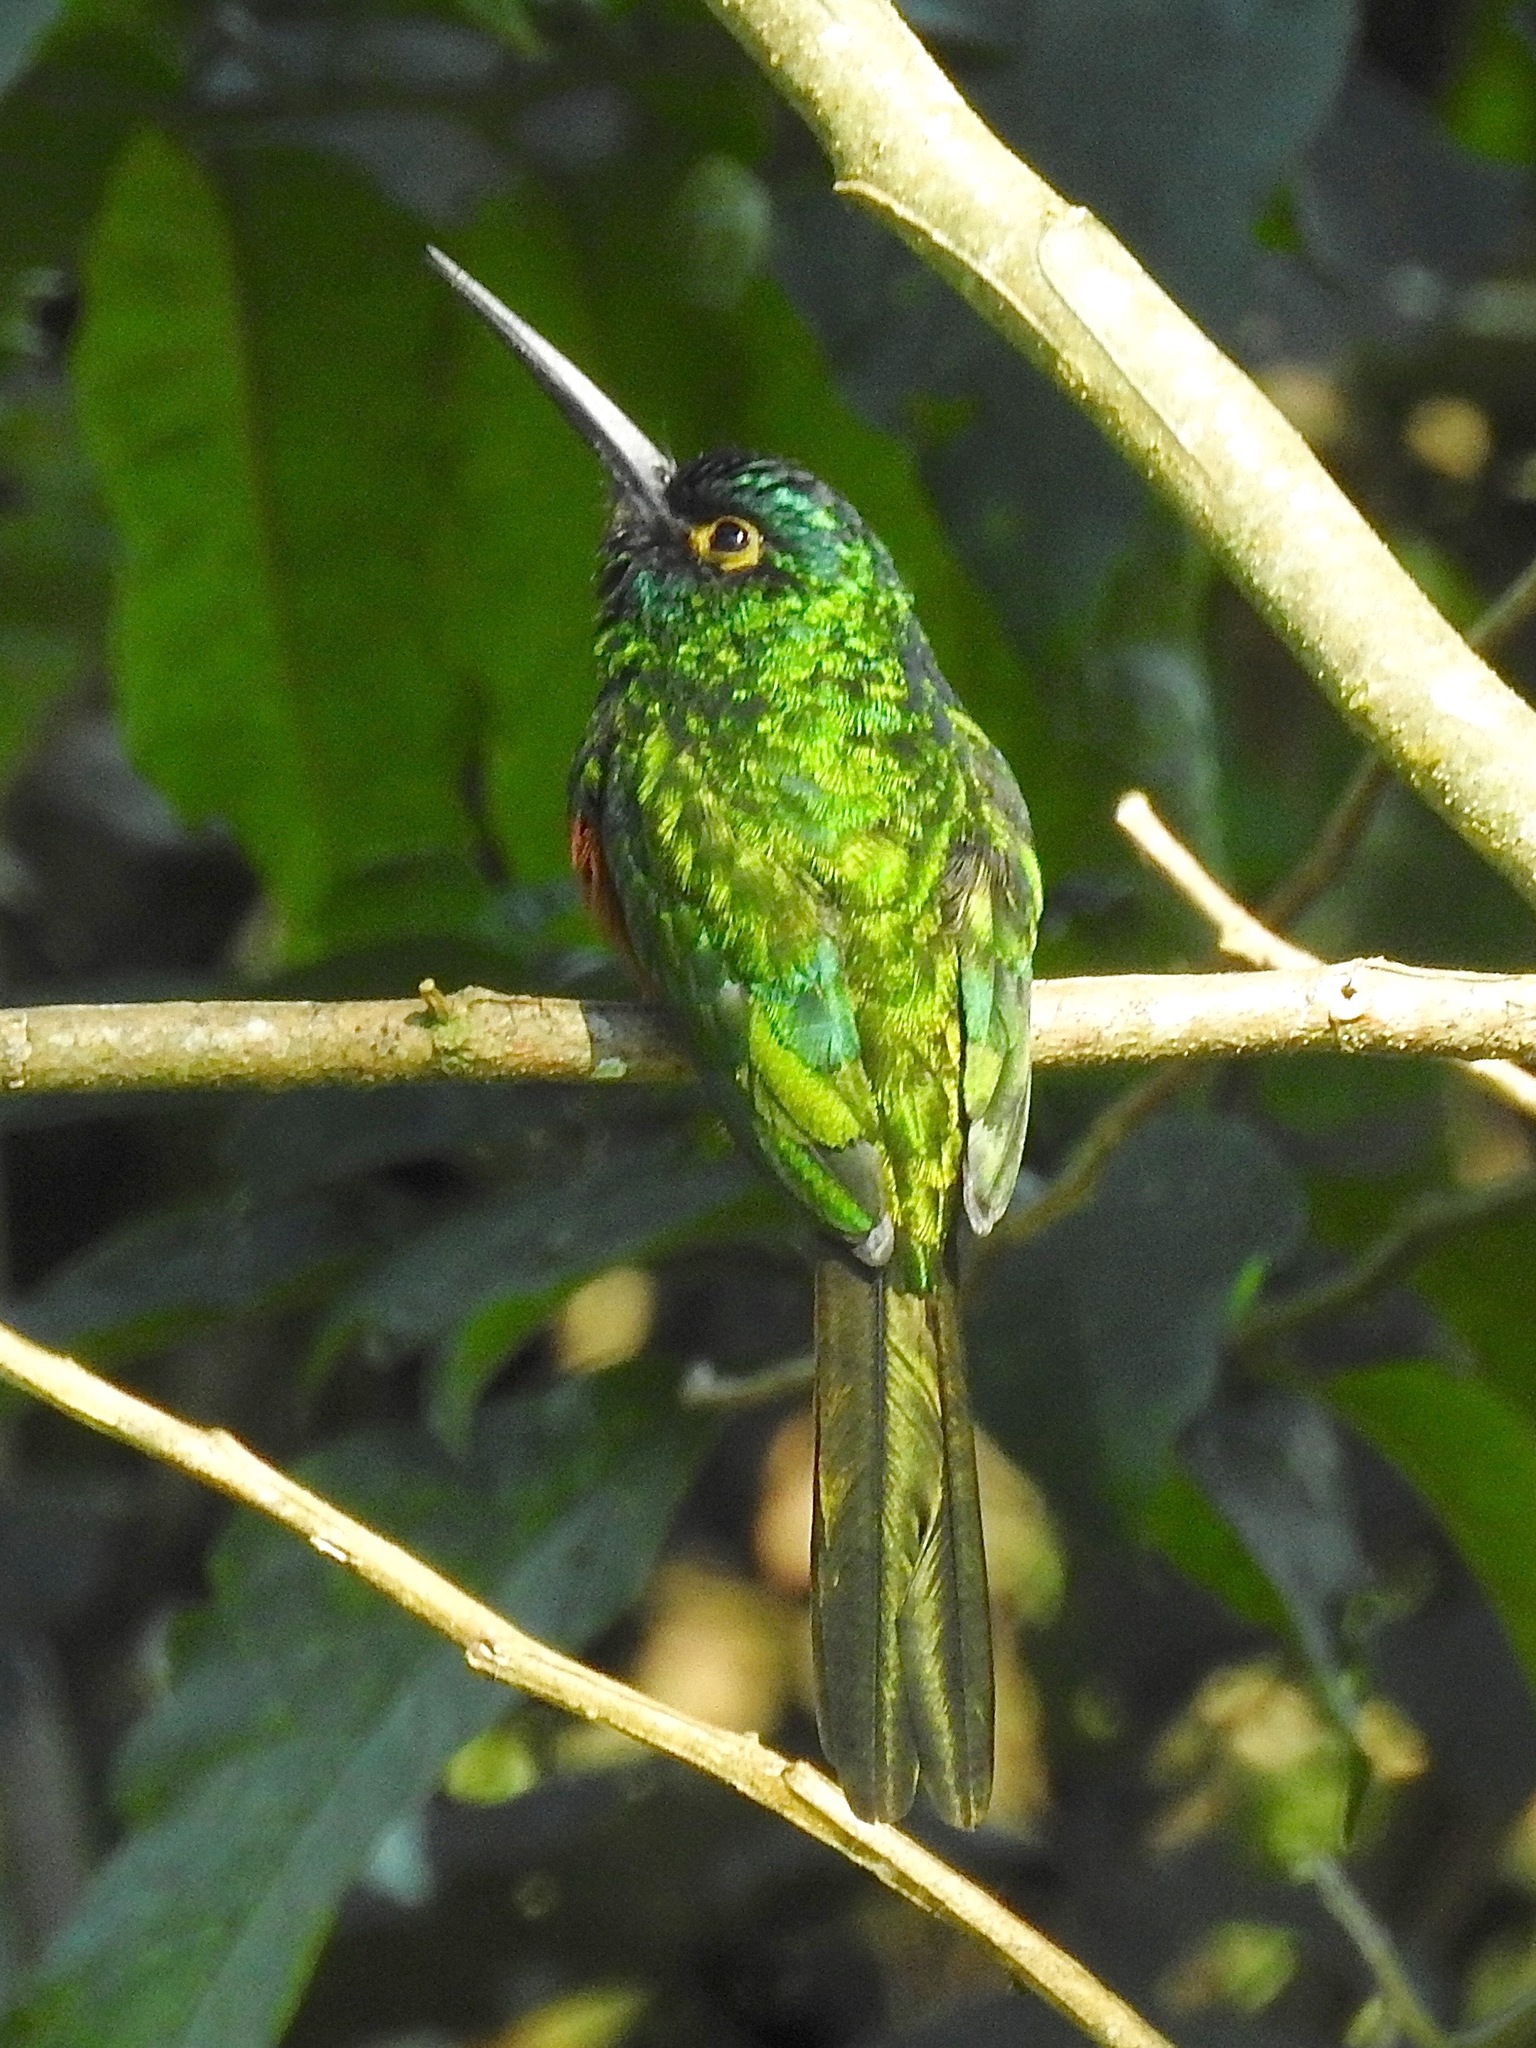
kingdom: Animalia
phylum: Chordata
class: Aves
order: Piciformes
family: Galbulidae
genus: Galbula
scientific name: Galbula pastazae
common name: Coppery-chested jacamar
